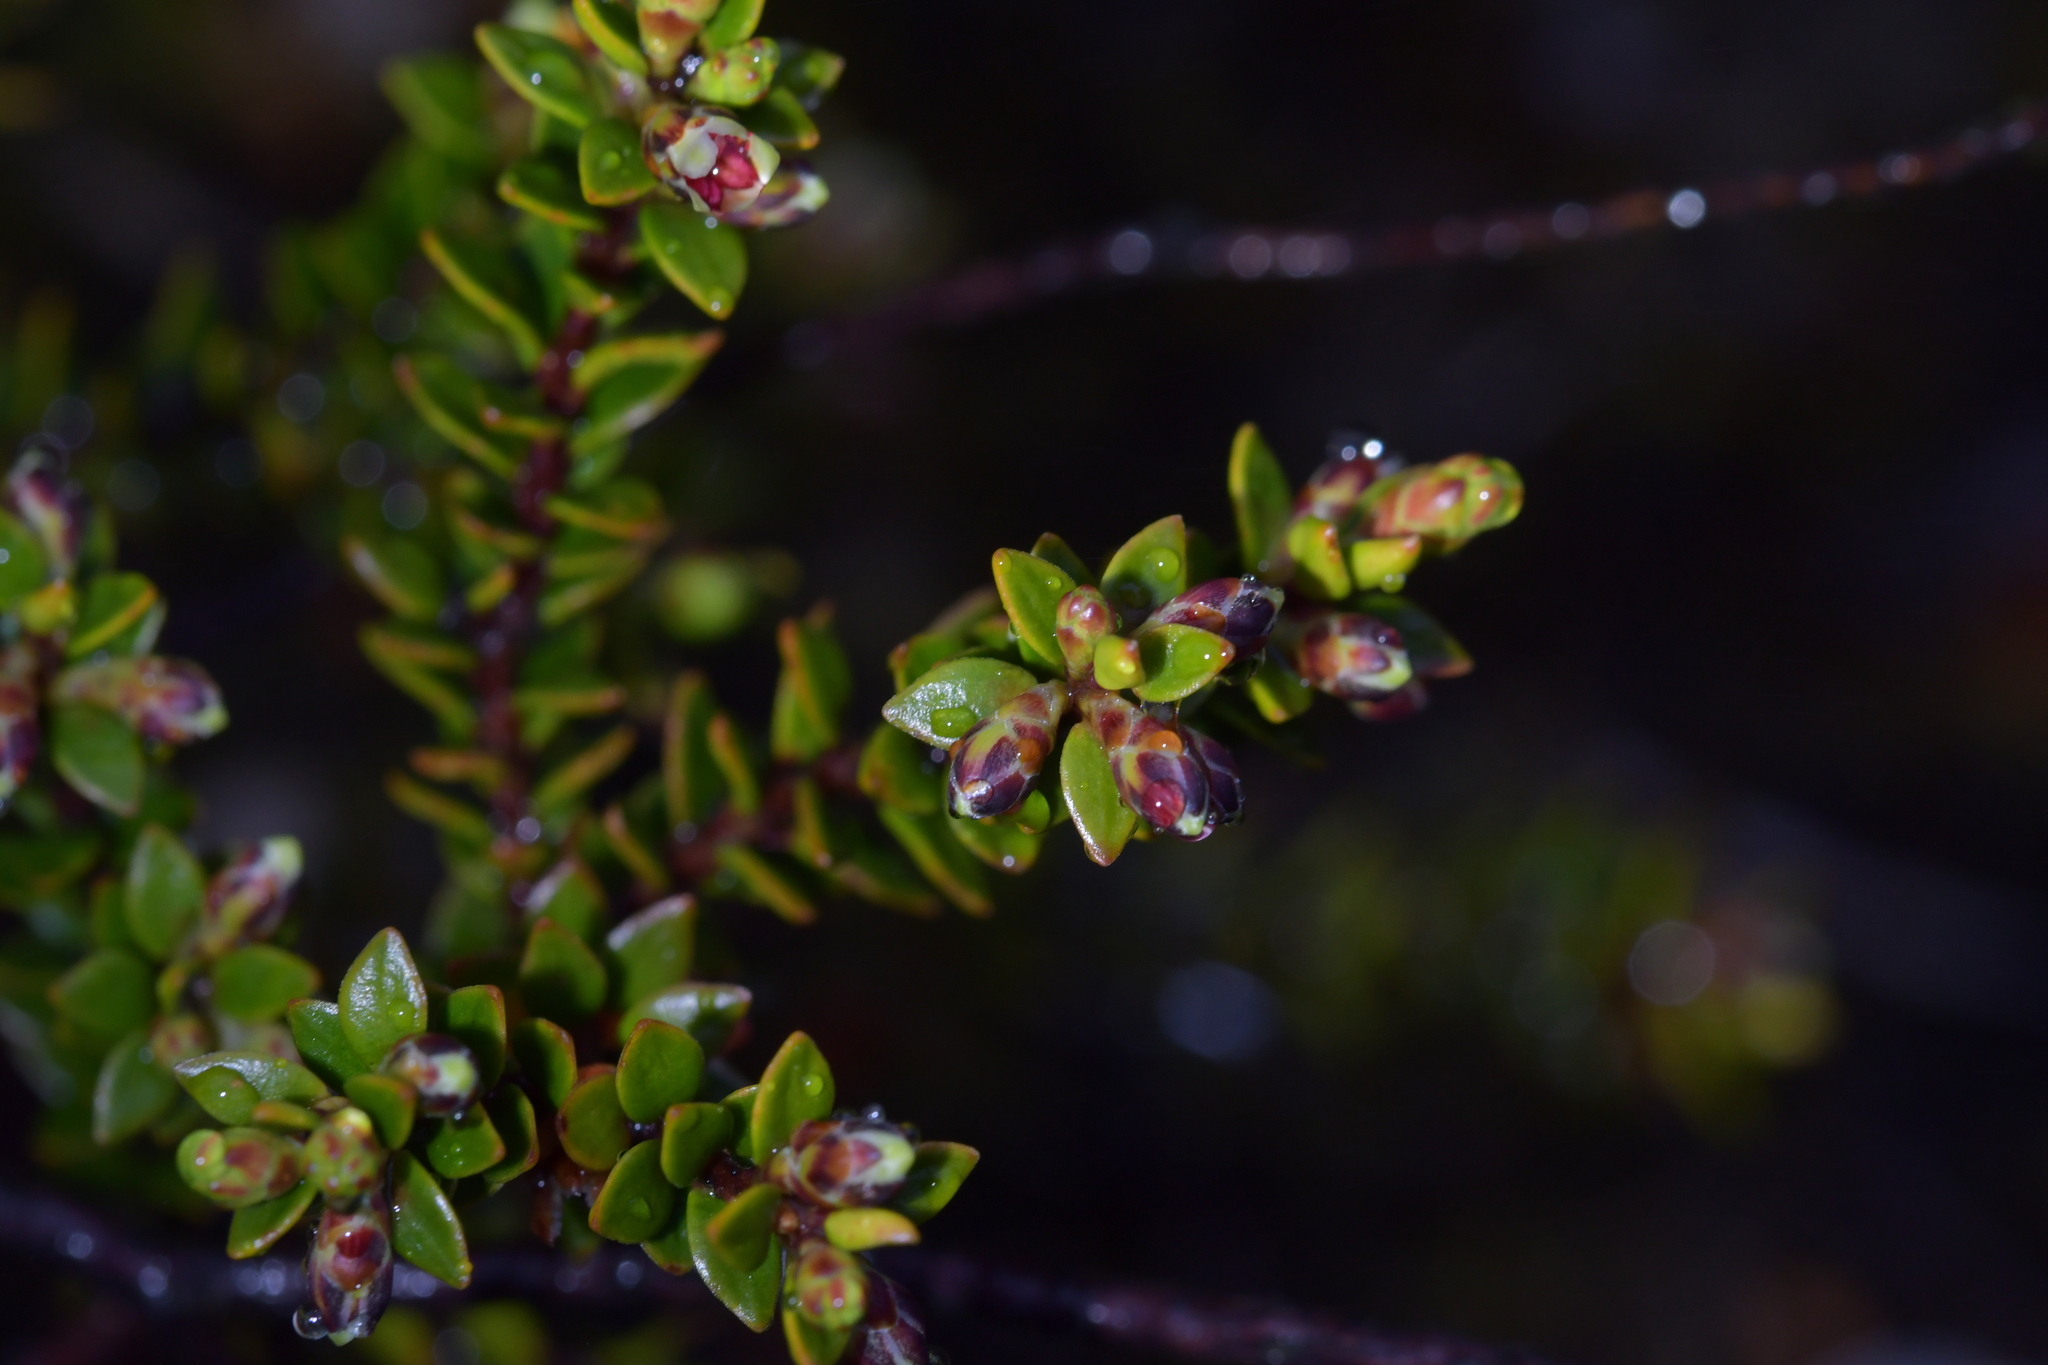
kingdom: Plantae
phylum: Tracheophyta
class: Magnoliopsida
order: Ericales
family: Ericaceae
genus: Epacris
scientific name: Epacris alpina
